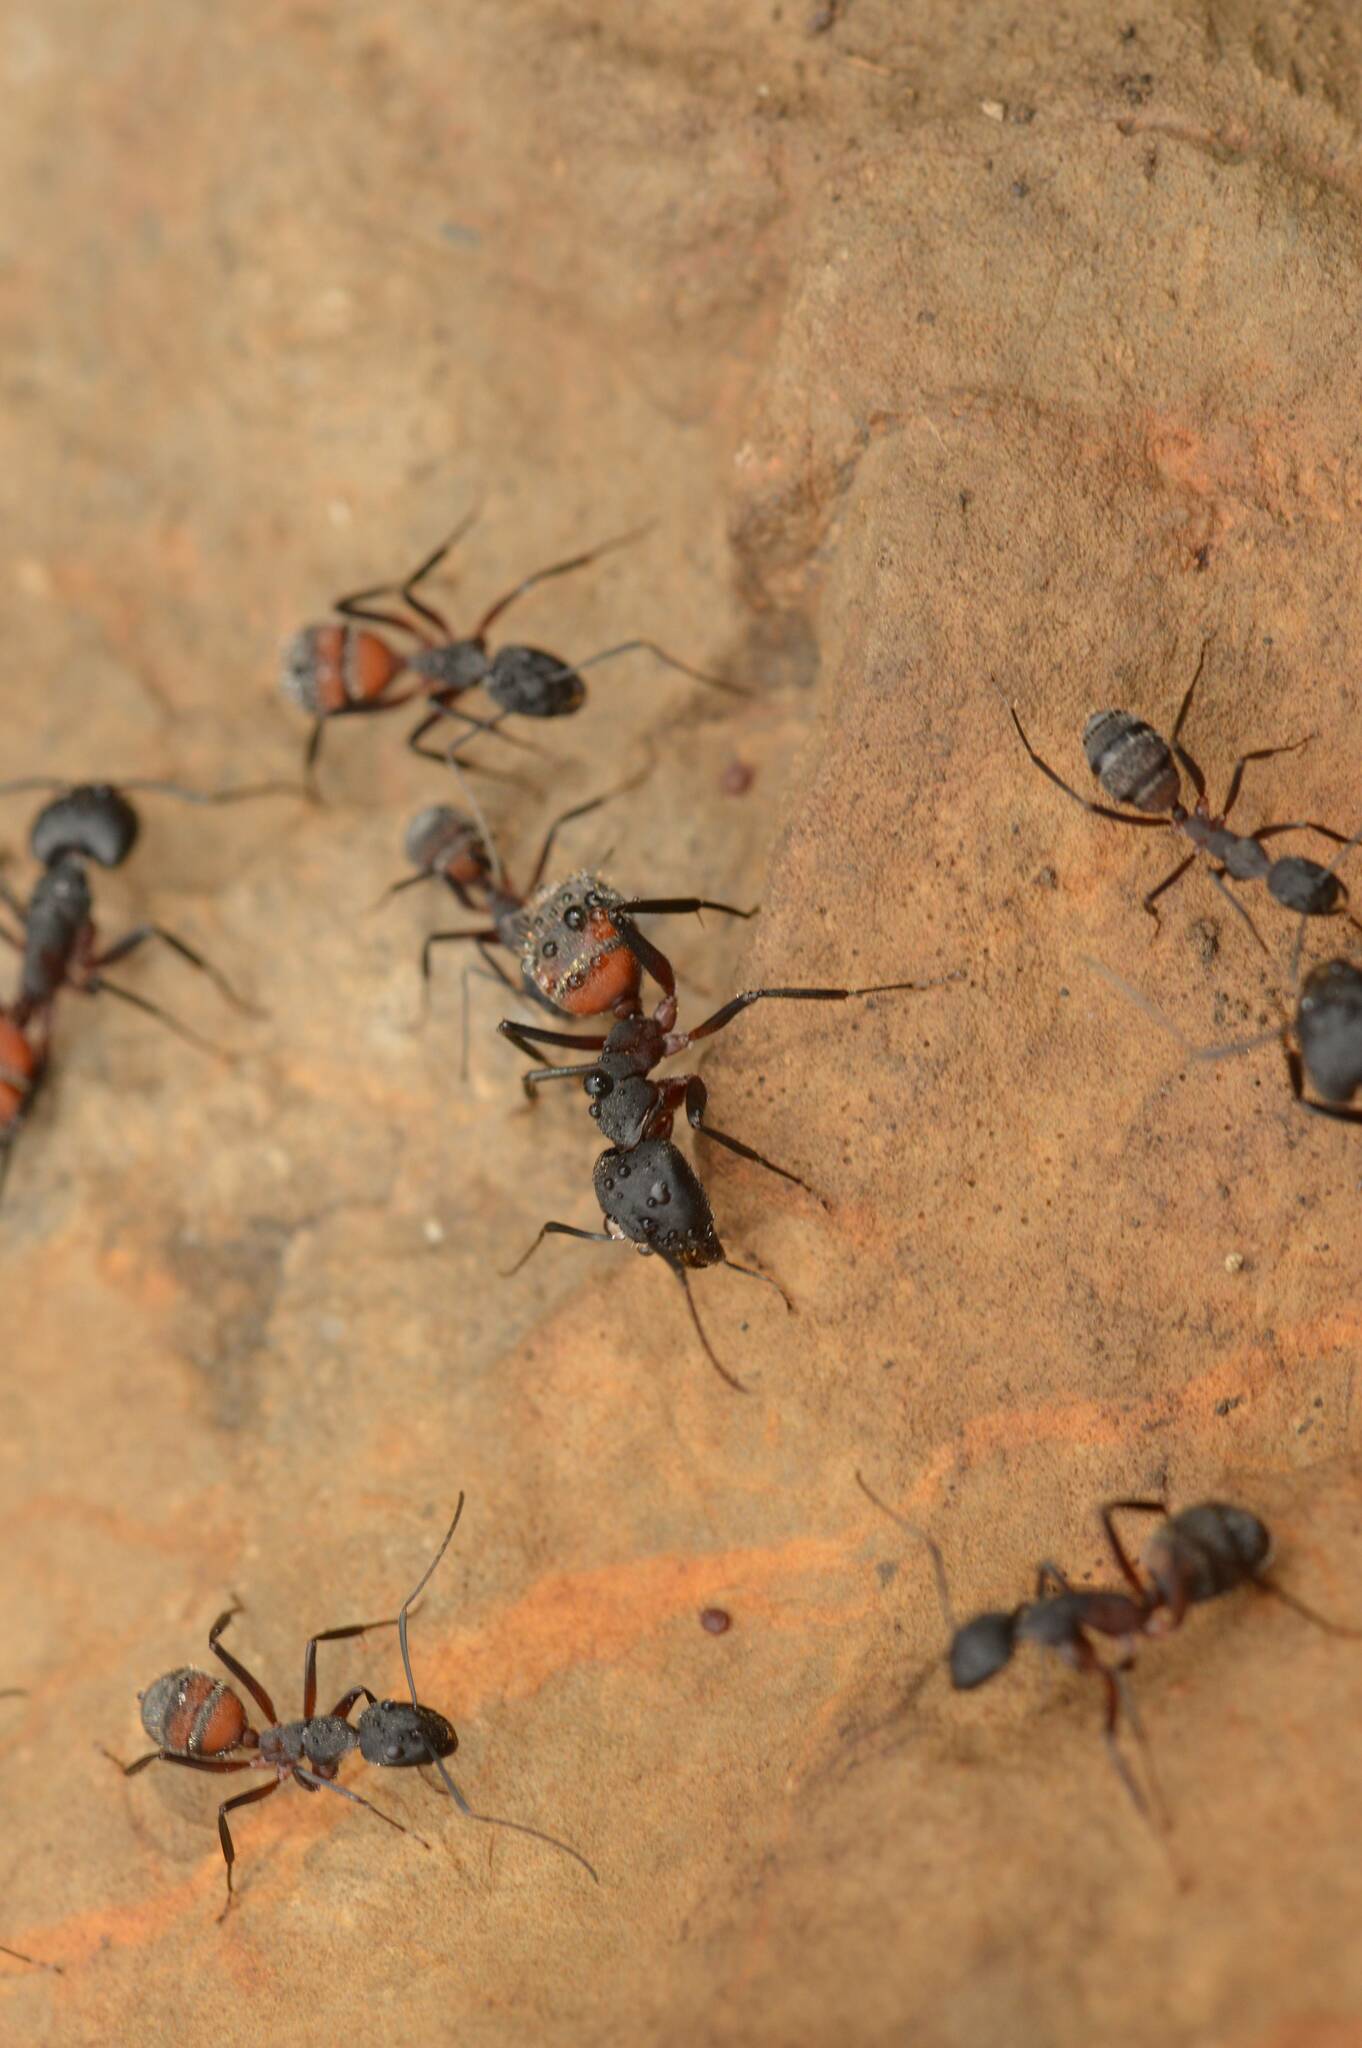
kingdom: Animalia
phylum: Arthropoda
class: Insecta
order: Hymenoptera
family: Formicidae
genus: Camponotus
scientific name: Camponotus cruentatus
